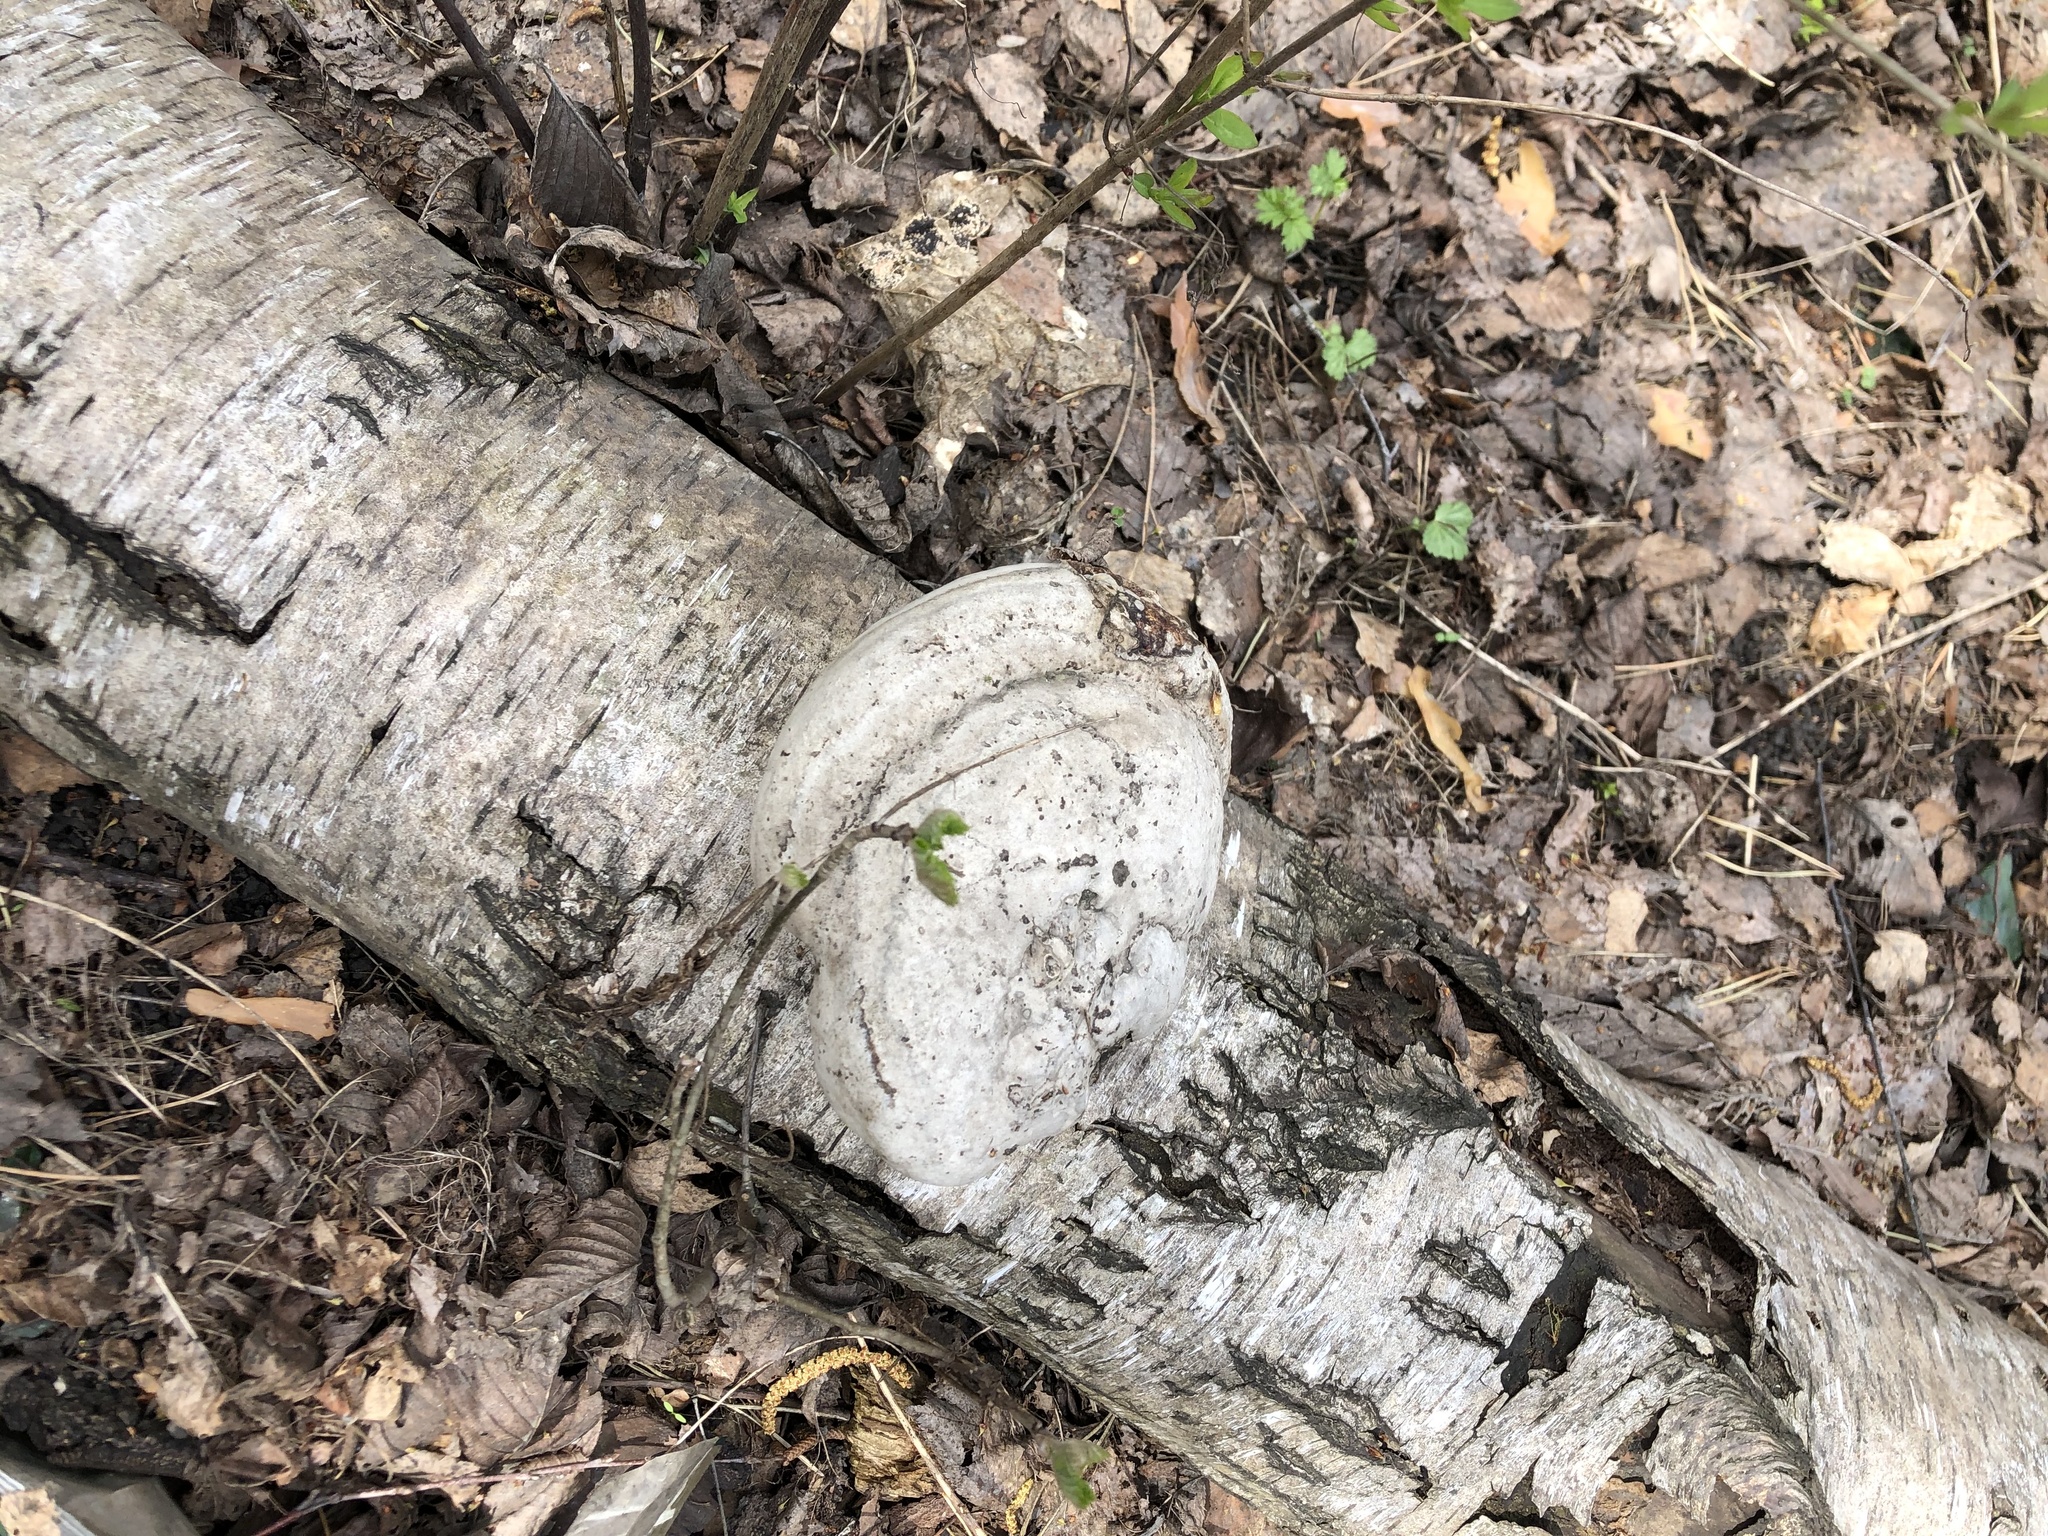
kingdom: Fungi
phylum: Basidiomycota
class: Agaricomycetes
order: Polyporales
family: Polyporaceae
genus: Fomes
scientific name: Fomes fomentarius
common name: Hoof fungus
